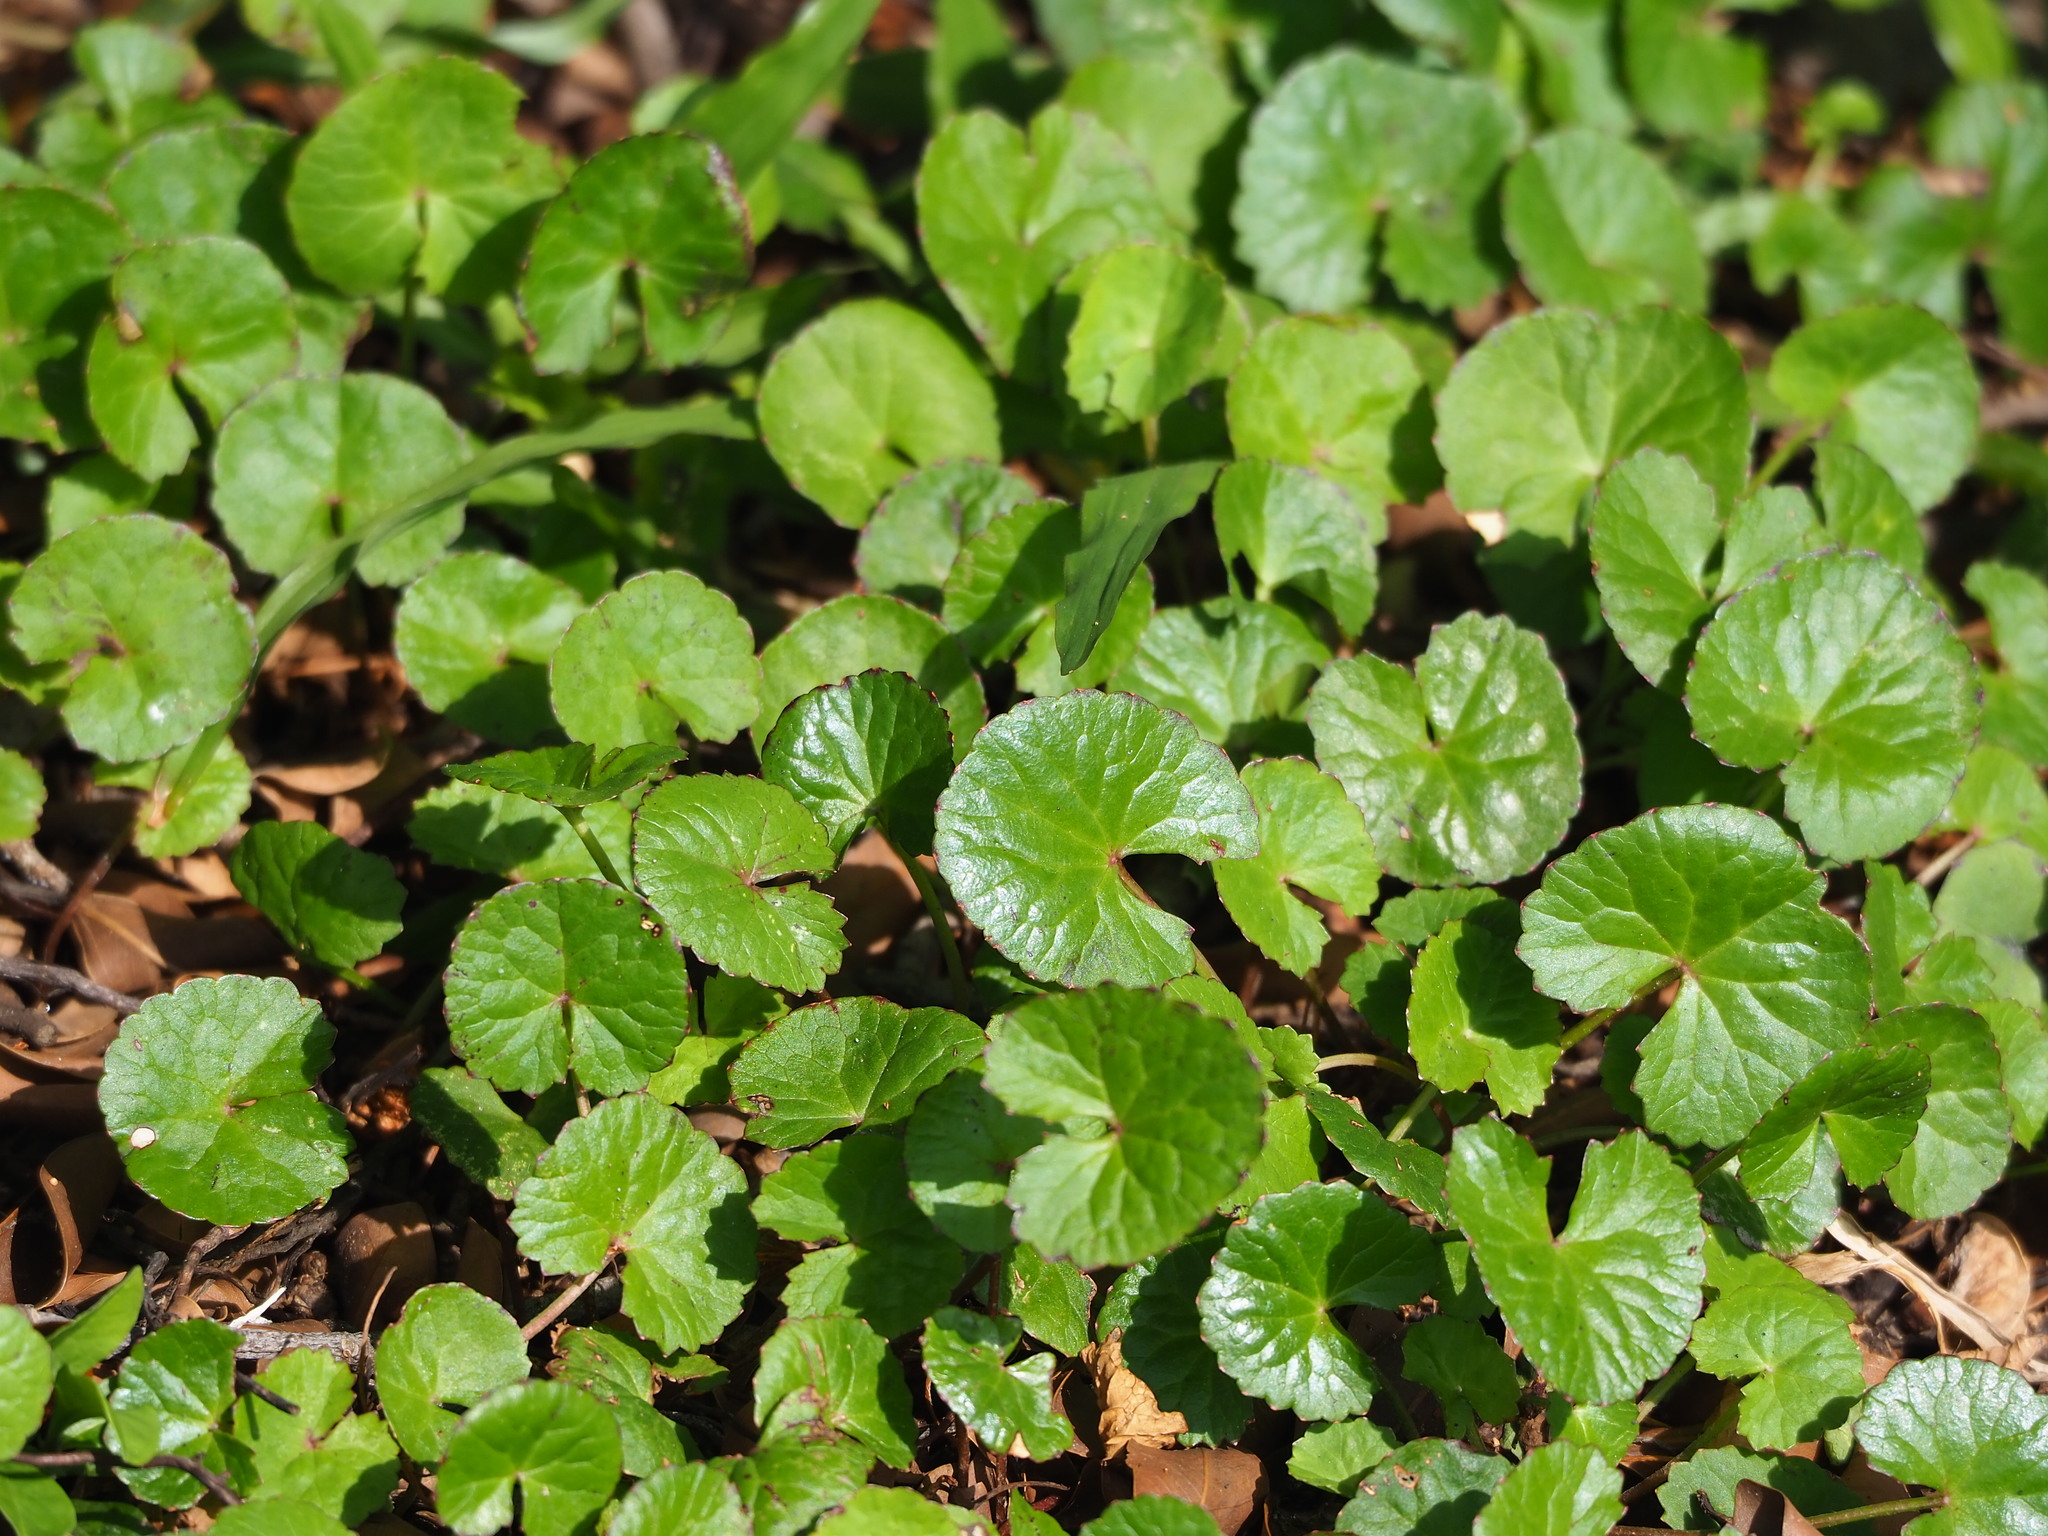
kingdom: Plantae
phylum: Tracheophyta
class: Magnoliopsida
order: Apiales
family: Apiaceae
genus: Centella
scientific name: Centella asiatica
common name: Spadeleaf
